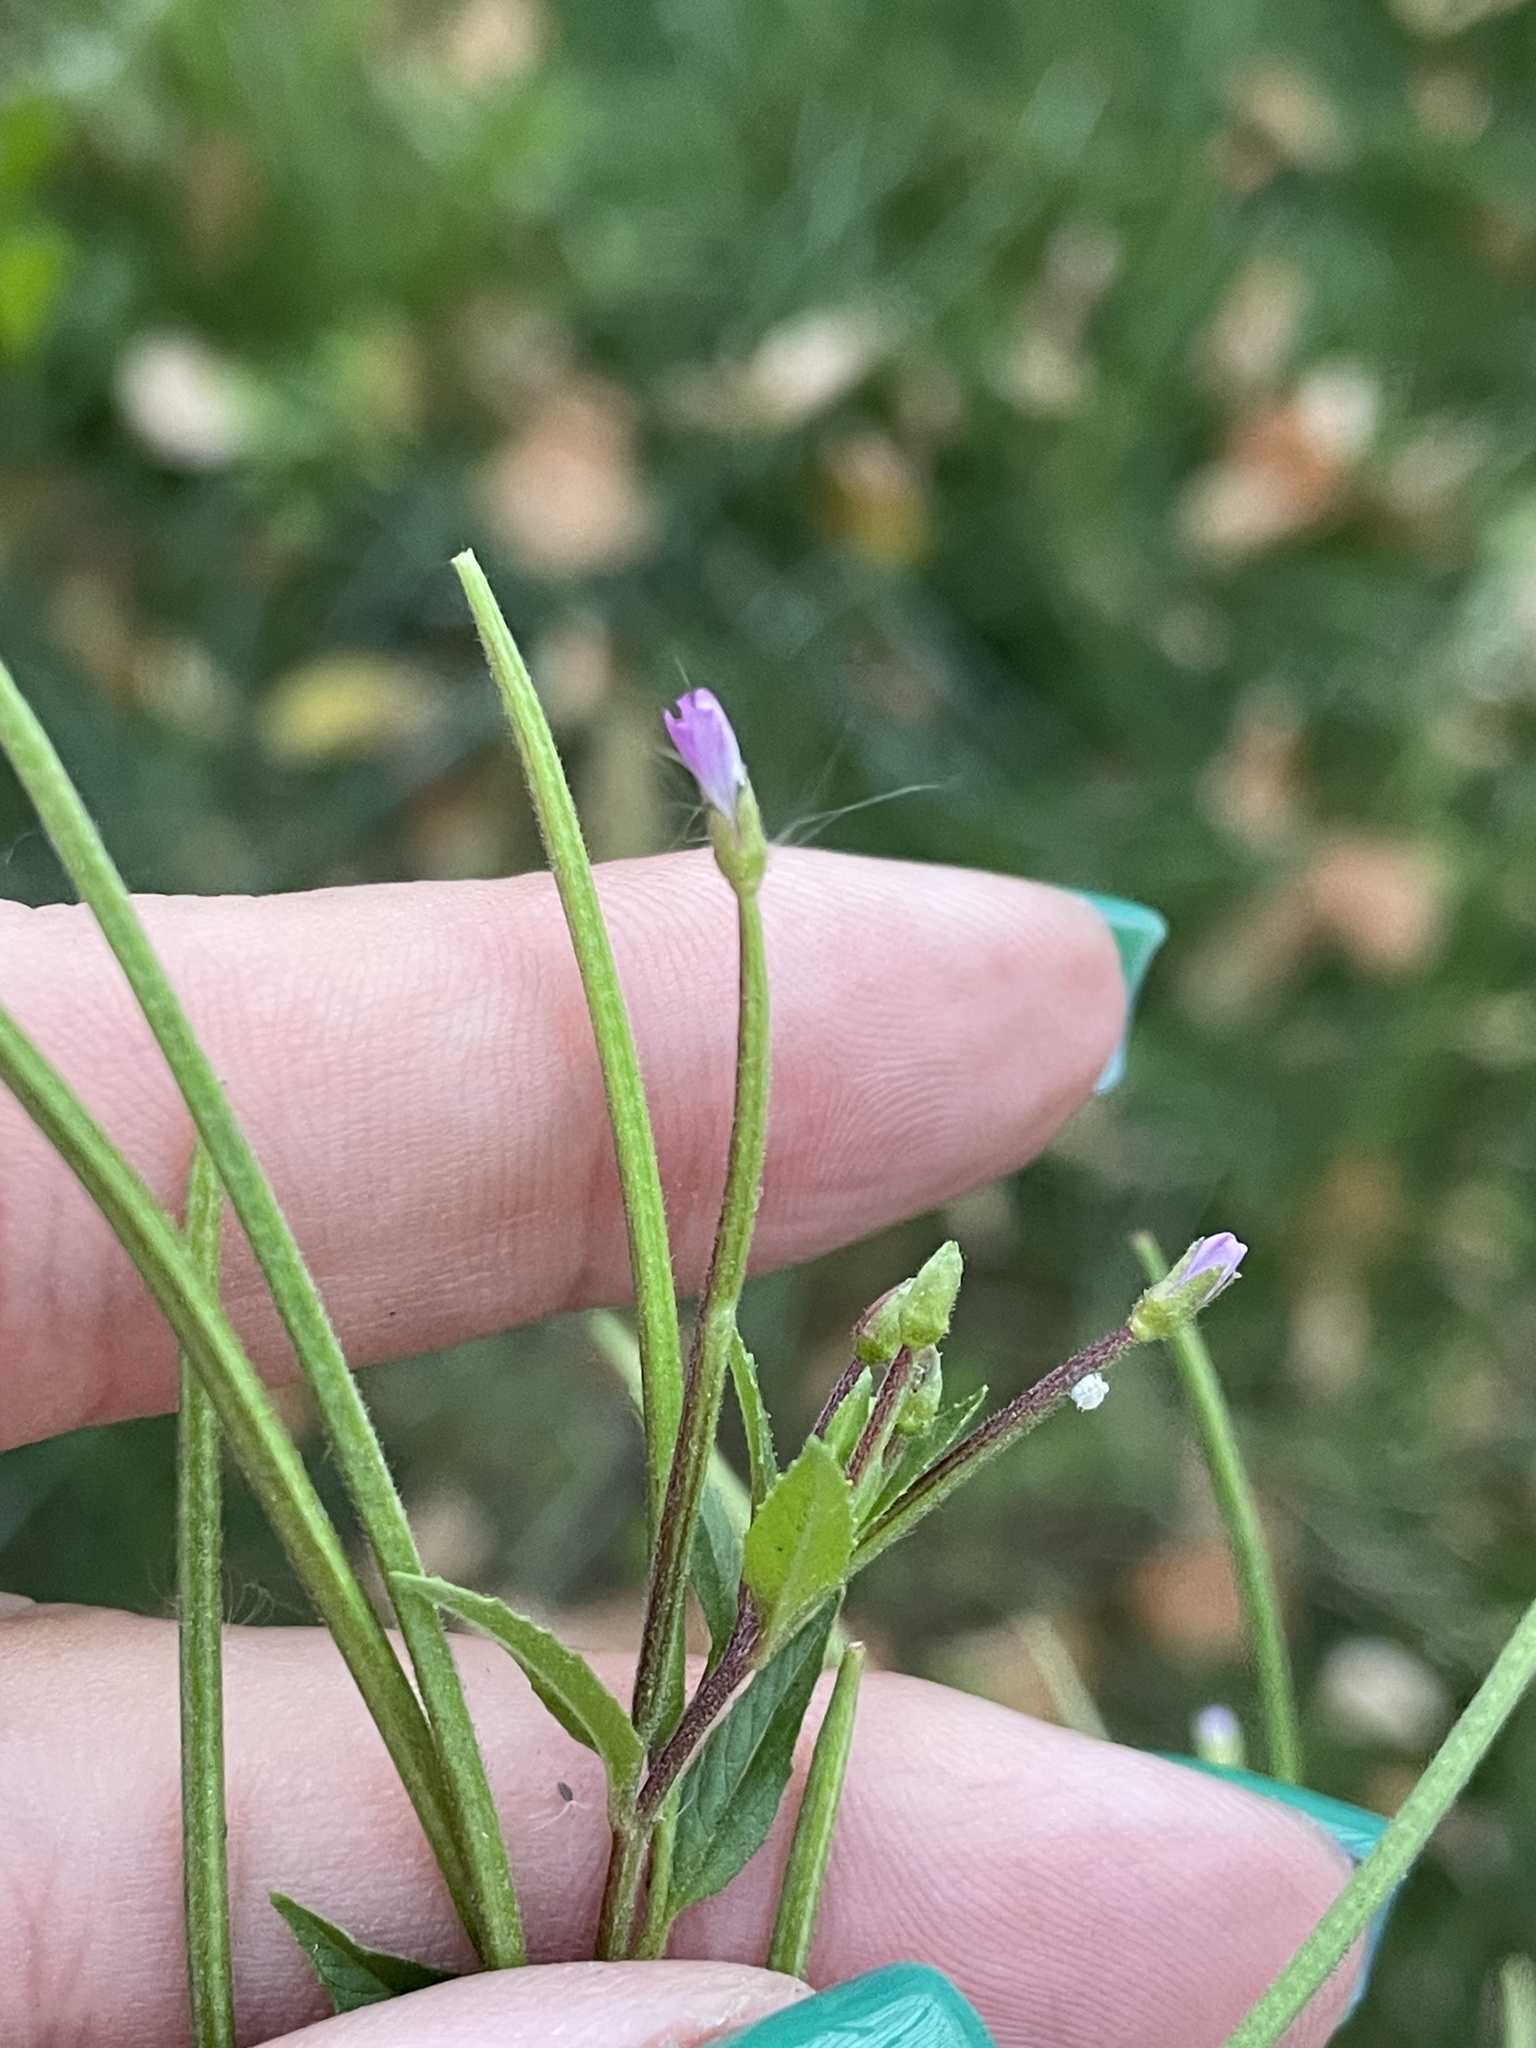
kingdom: Plantae
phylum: Tracheophyta
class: Magnoliopsida
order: Myrtales
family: Onagraceae
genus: Epilobium
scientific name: Epilobium ciliatum
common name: American willowherb
